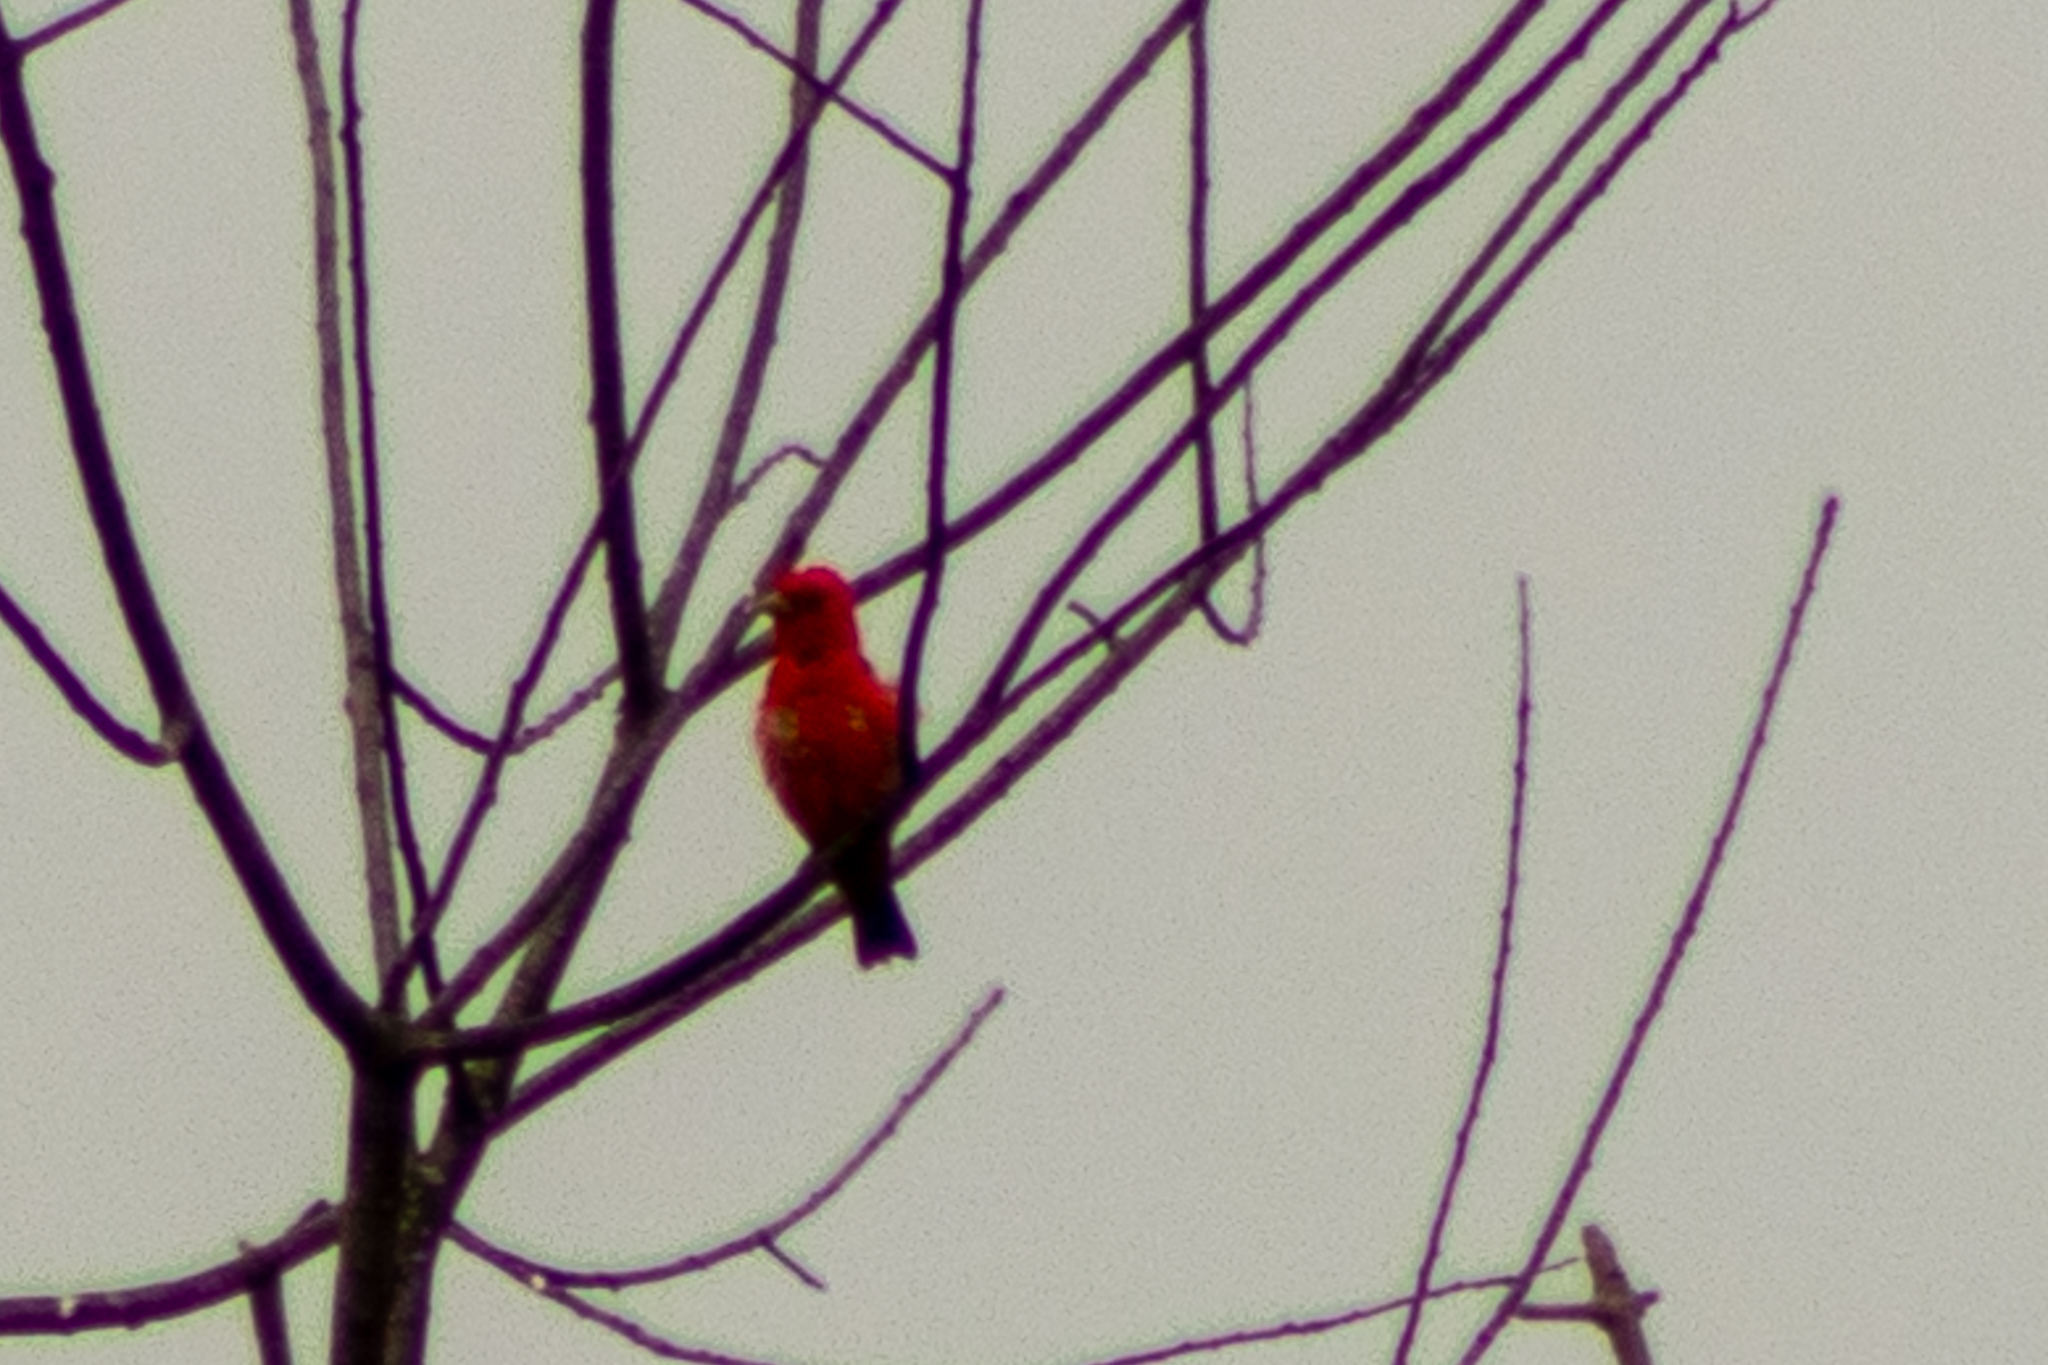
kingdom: Animalia
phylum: Chordata
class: Aves
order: Passeriformes
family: Cardinalidae
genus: Piranga
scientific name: Piranga olivacea
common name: Scarlet tanager
